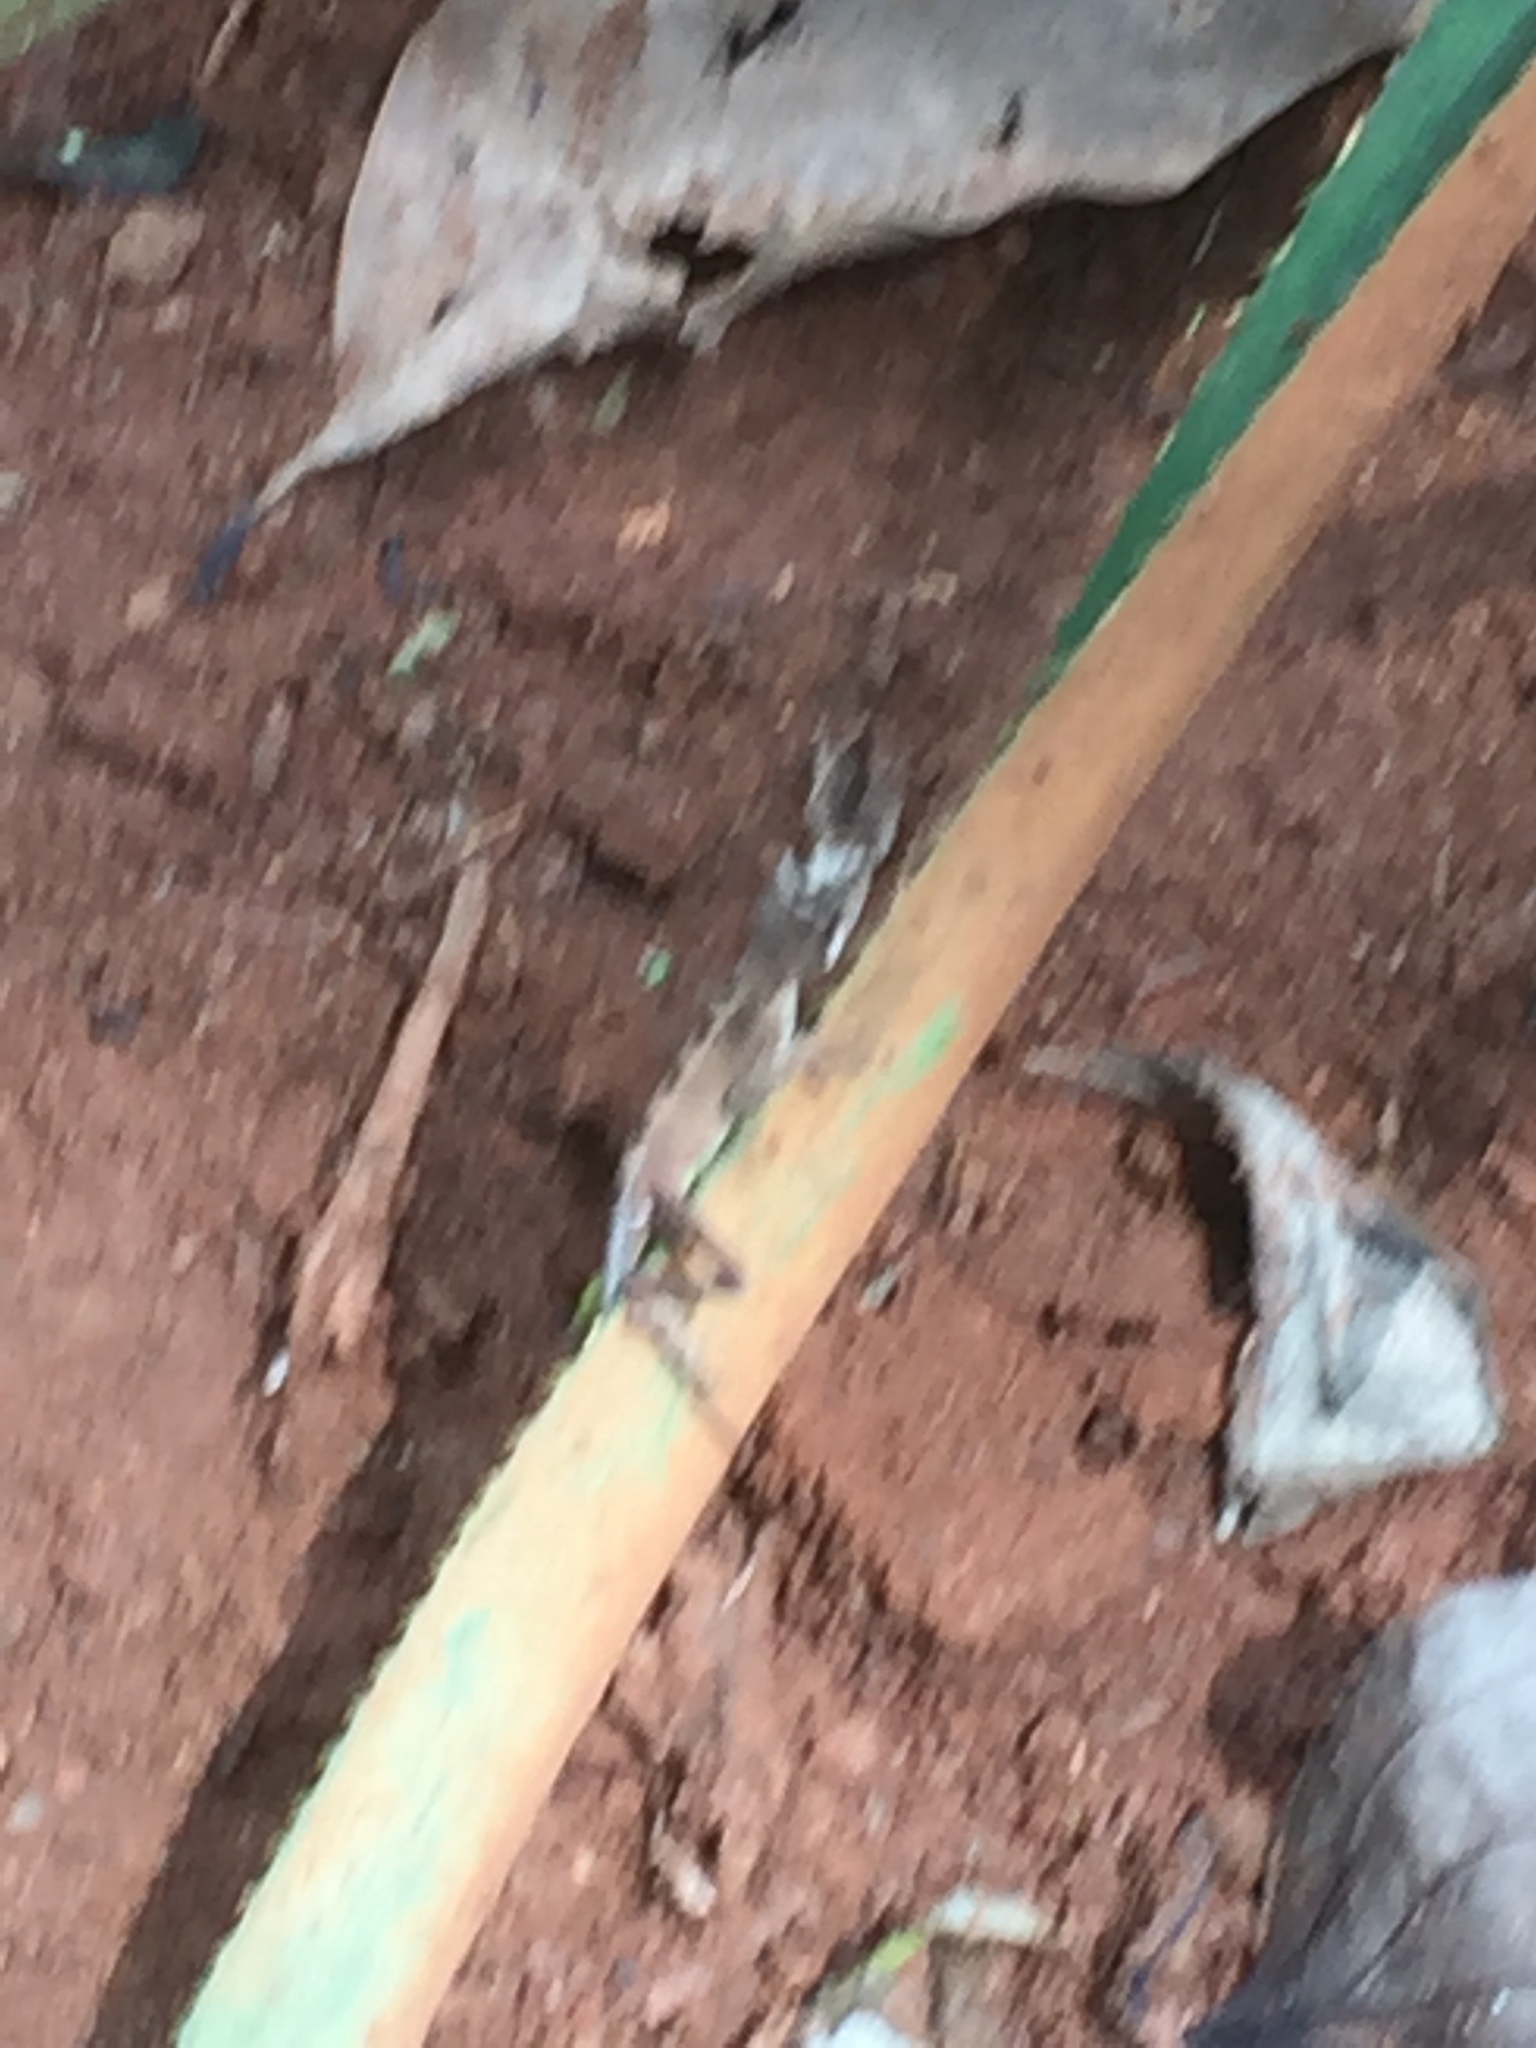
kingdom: Animalia
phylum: Chordata
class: Squamata
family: Agamidae
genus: Calotes
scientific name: Calotes versicolor
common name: Oriental garden lizard
